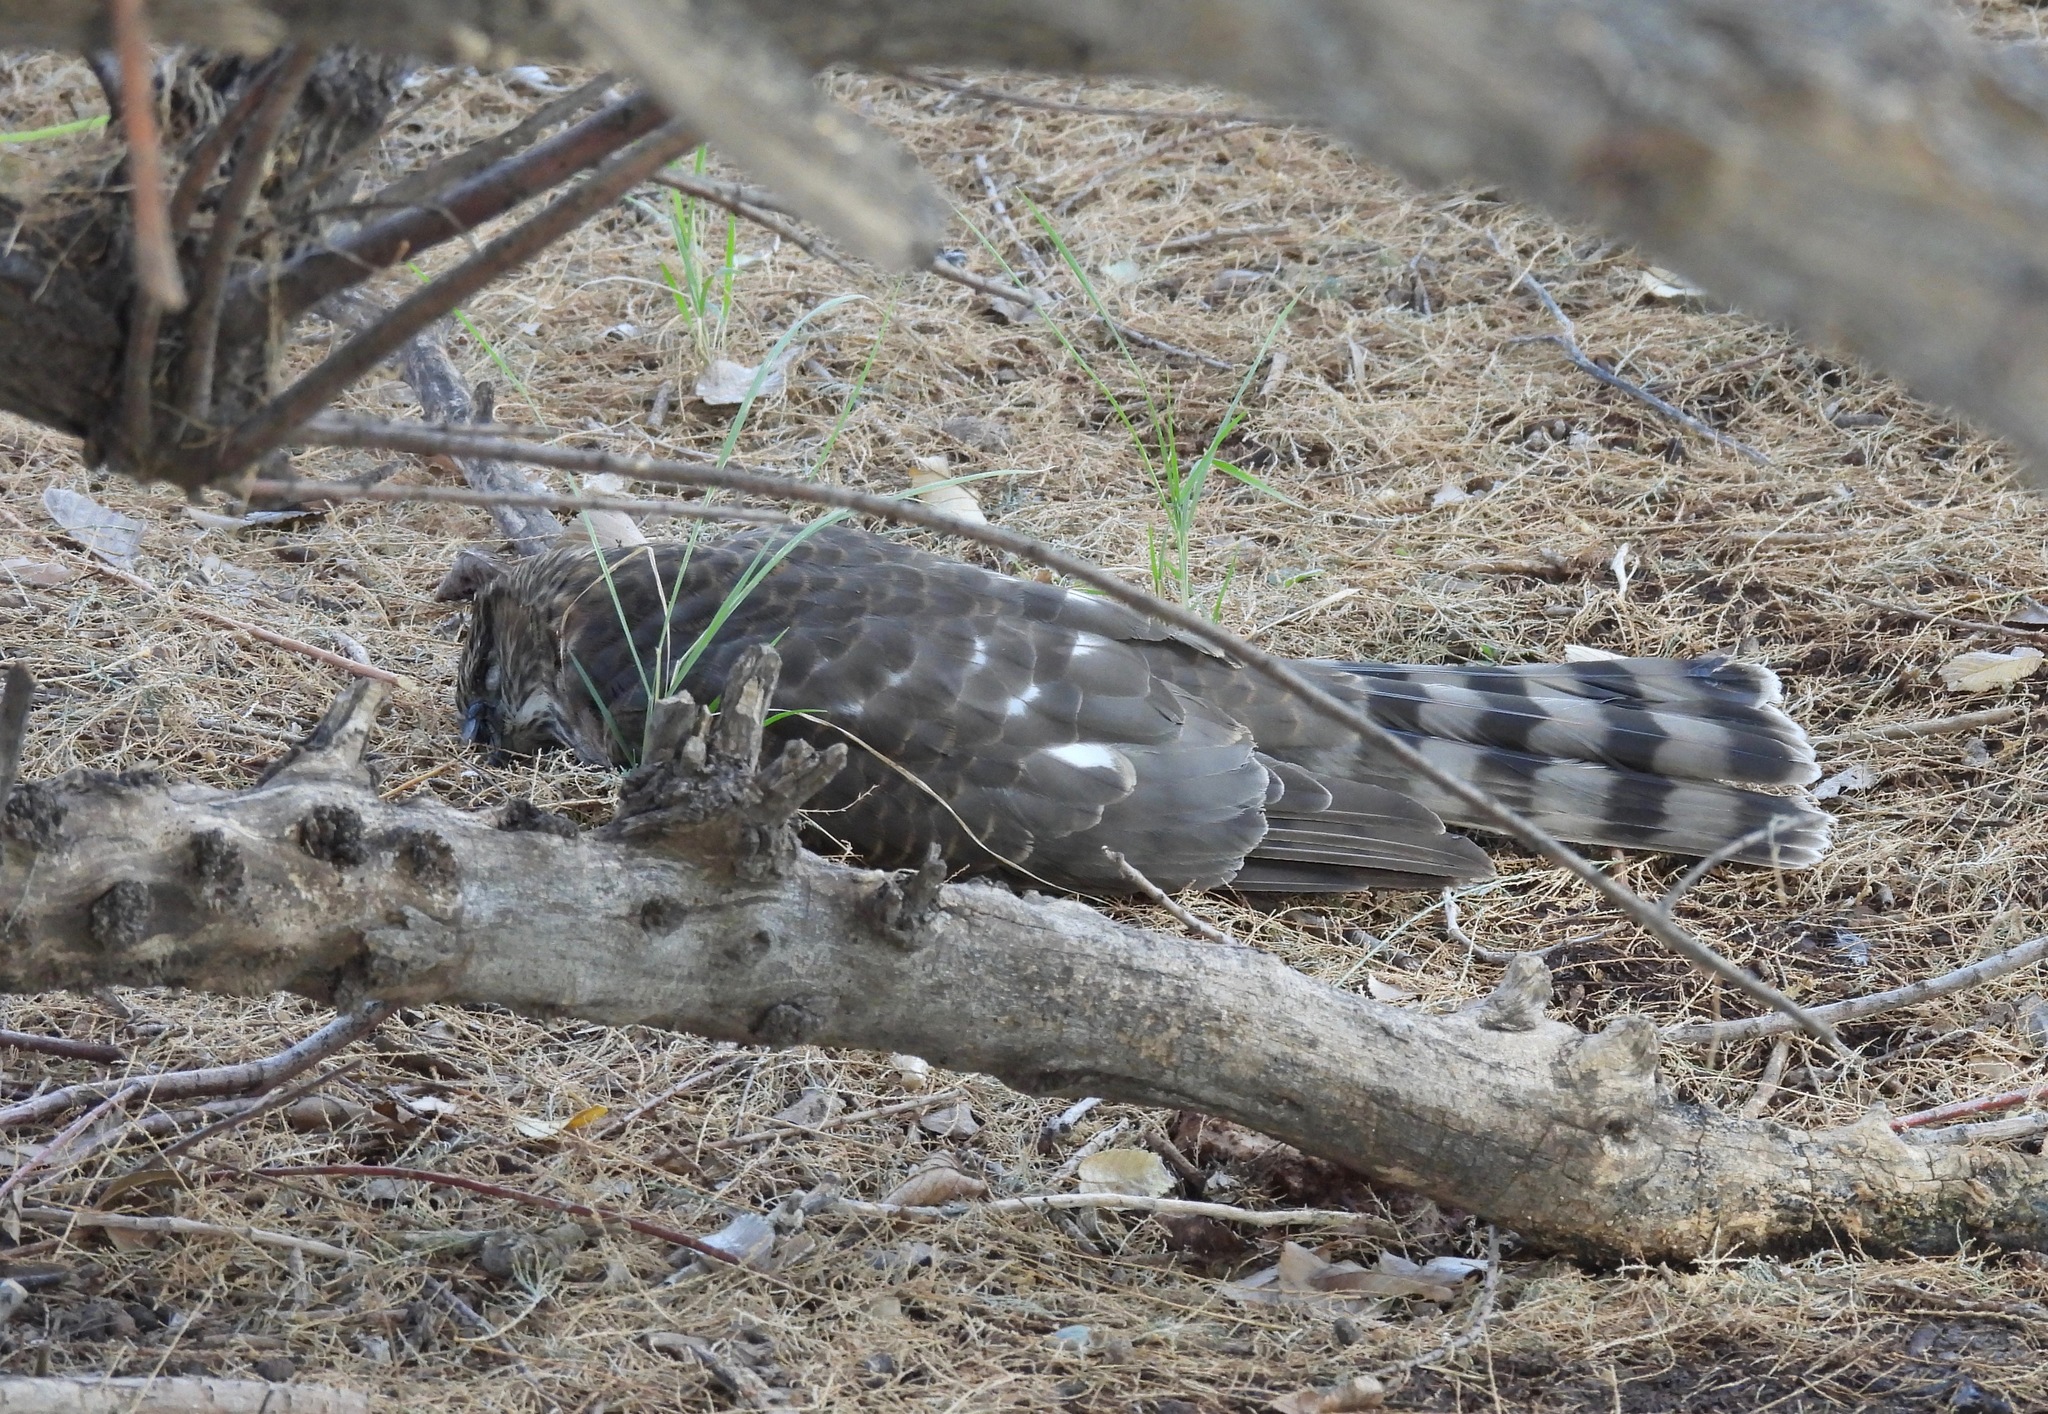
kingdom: Animalia
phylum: Chordata
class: Aves
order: Accipitriformes
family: Accipitridae
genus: Accipiter
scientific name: Accipiter striatus
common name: Sharp-shinned hawk
